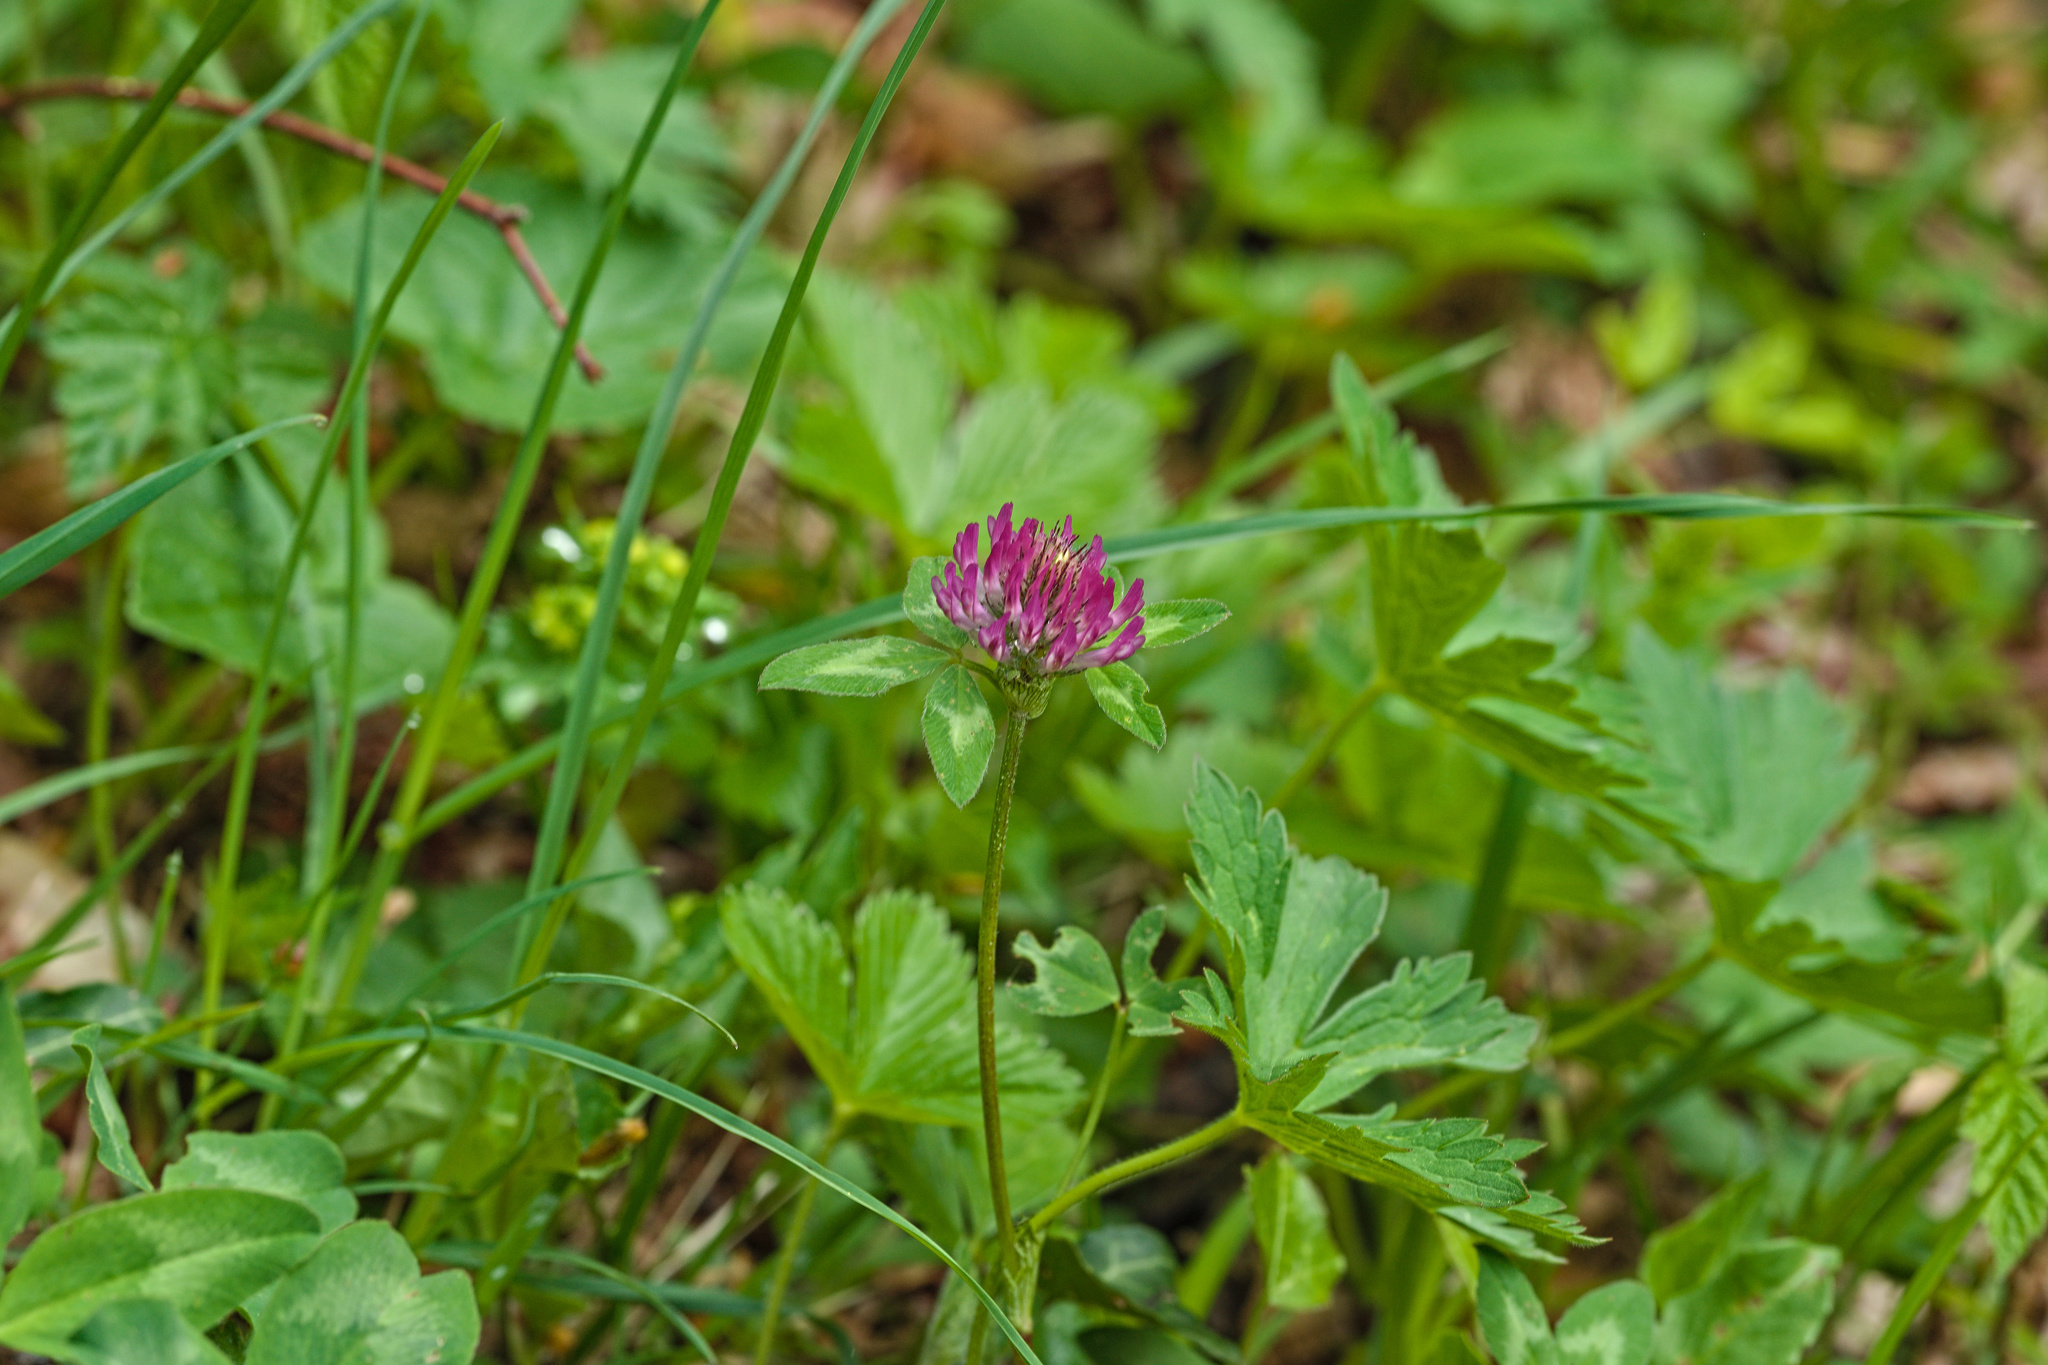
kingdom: Plantae
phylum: Tracheophyta
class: Magnoliopsida
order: Fabales
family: Fabaceae
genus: Trifolium
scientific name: Trifolium pratense
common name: Red clover
